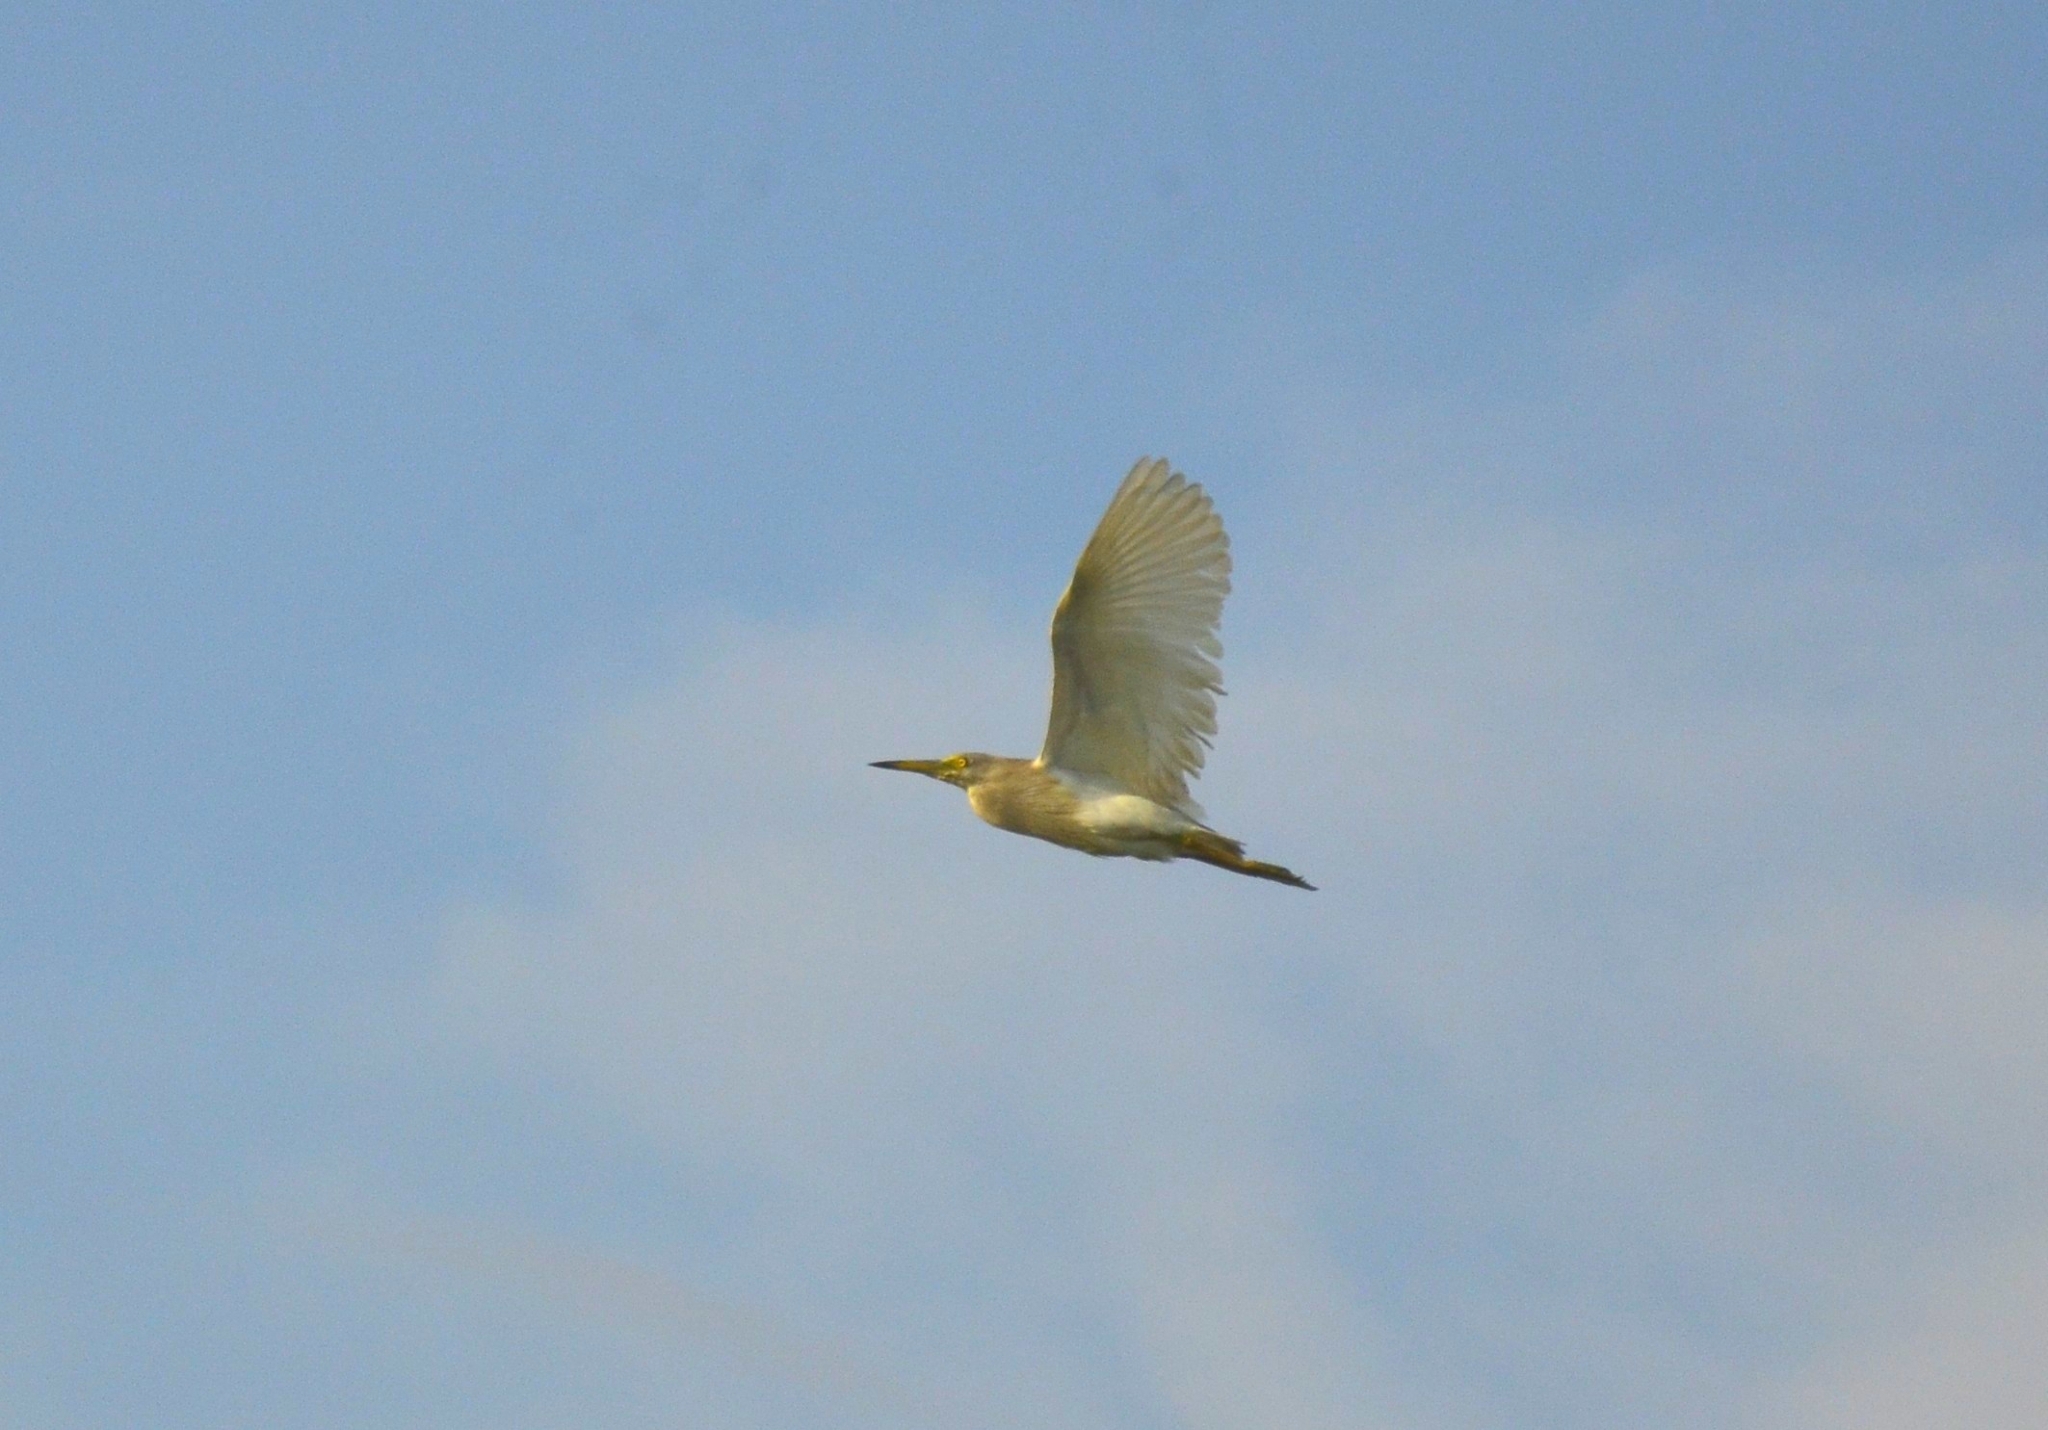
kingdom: Animalia
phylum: Chordata
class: Aves
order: Pelecaniformes
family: Ardeidae
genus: Ardeola
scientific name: Ardeola grayii
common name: Indian pond heron
